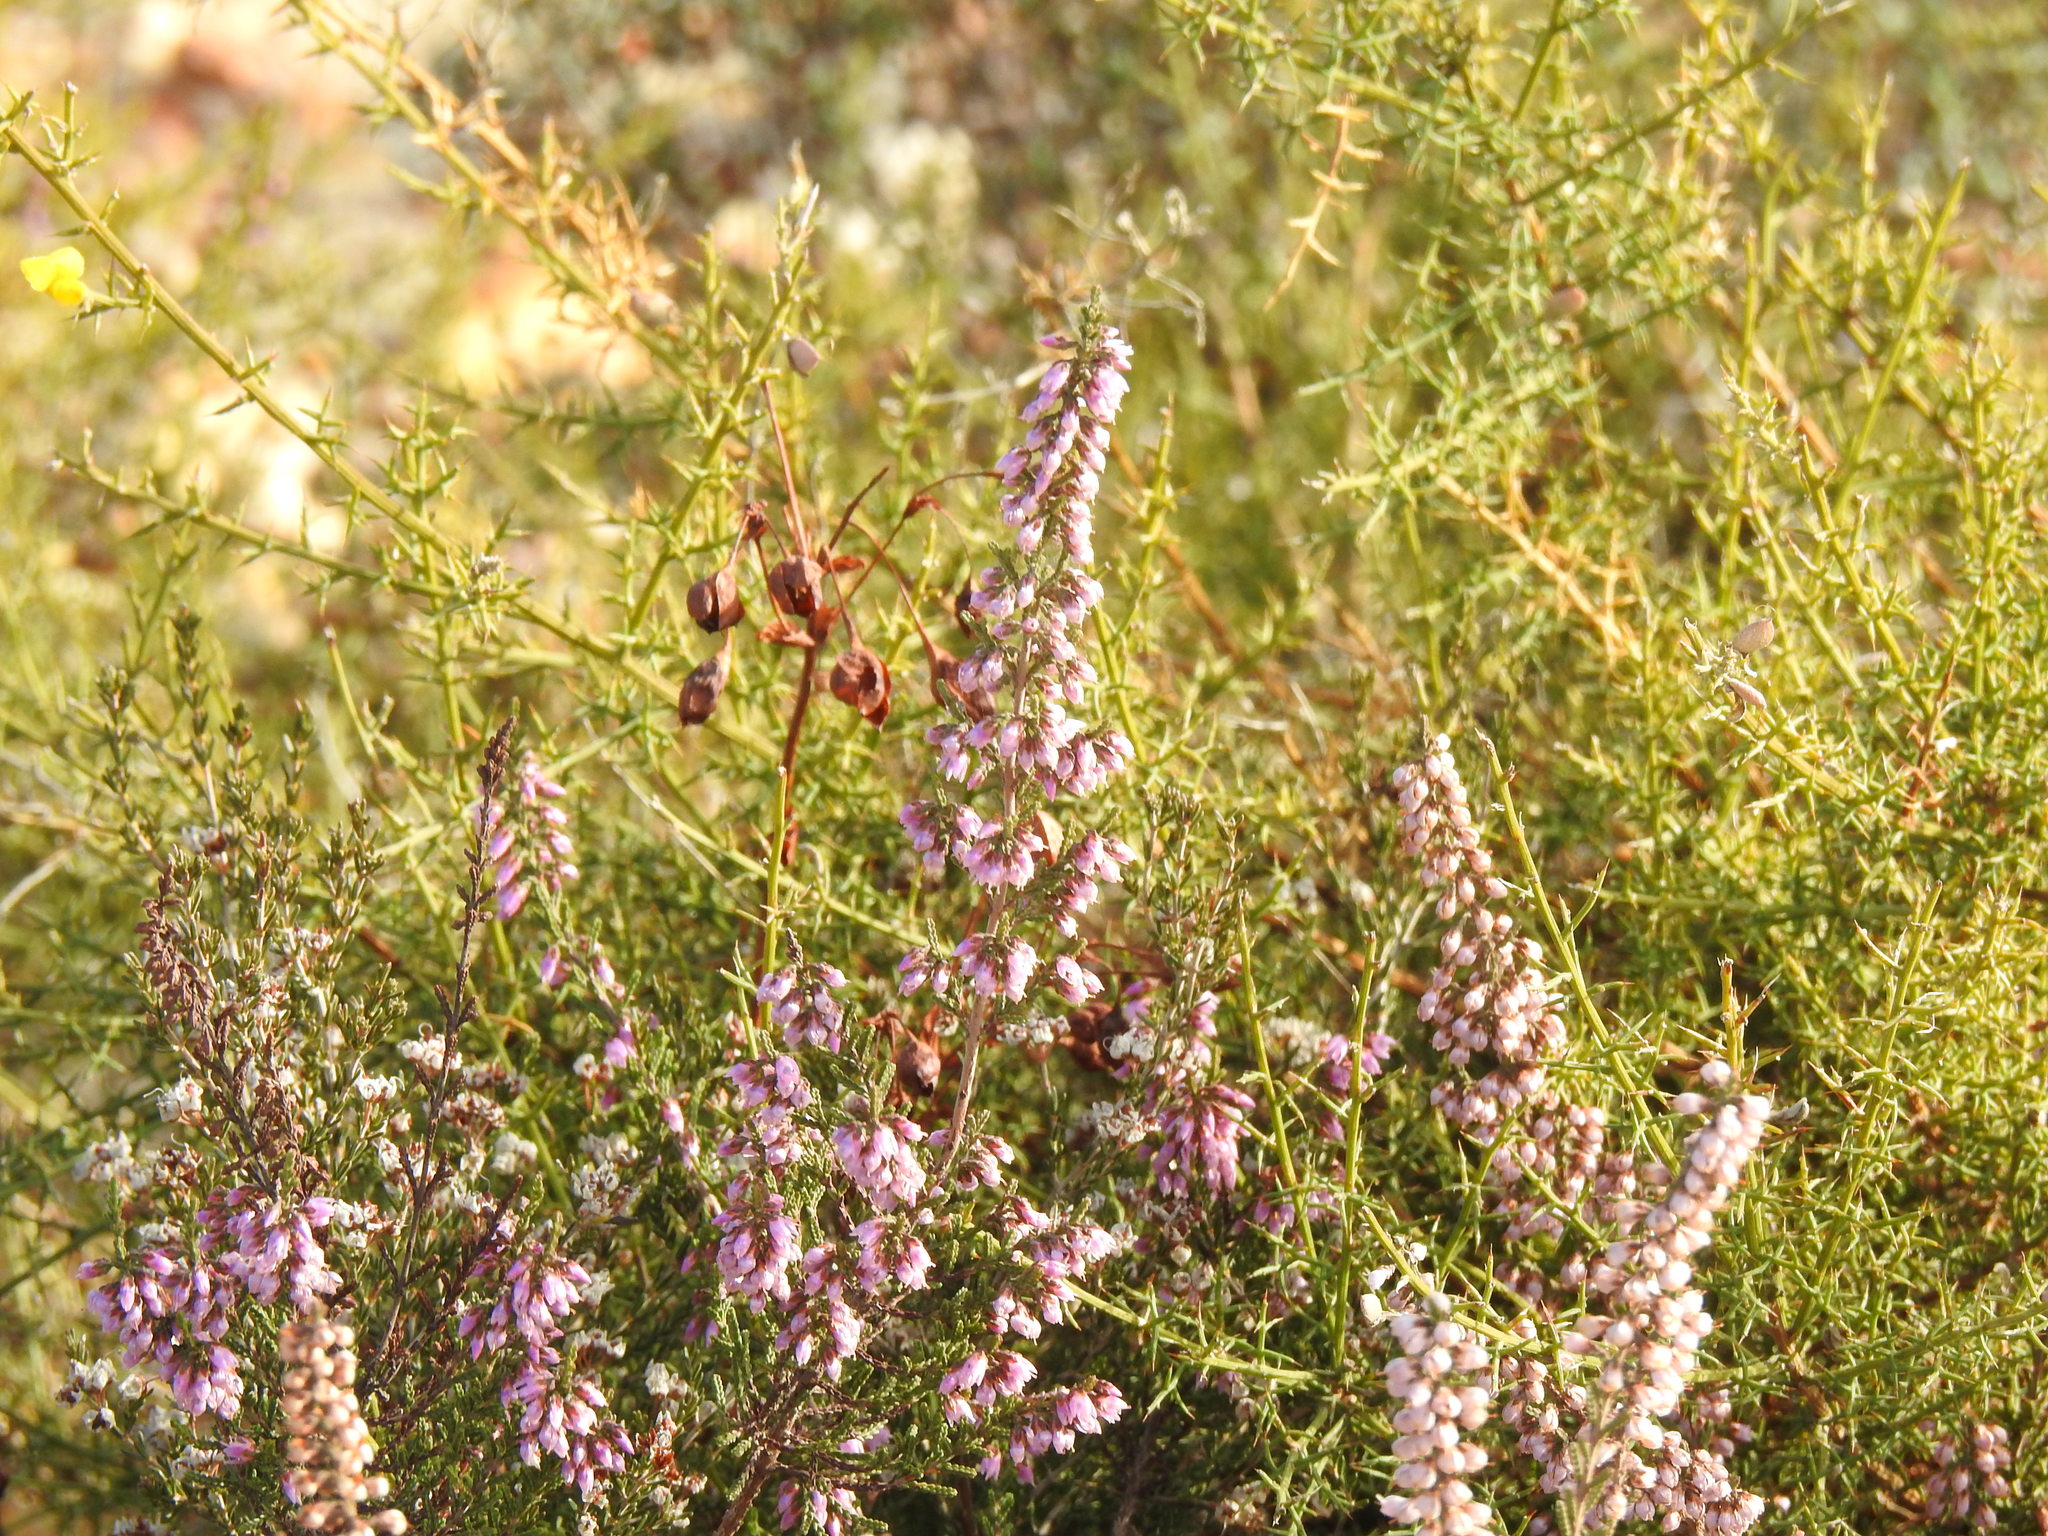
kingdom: Plantae
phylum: Tracheophyta
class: Magnoliopsida
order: Ericales
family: Ericaceae
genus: Calluna
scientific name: Calluna vulgaris
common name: Heather
